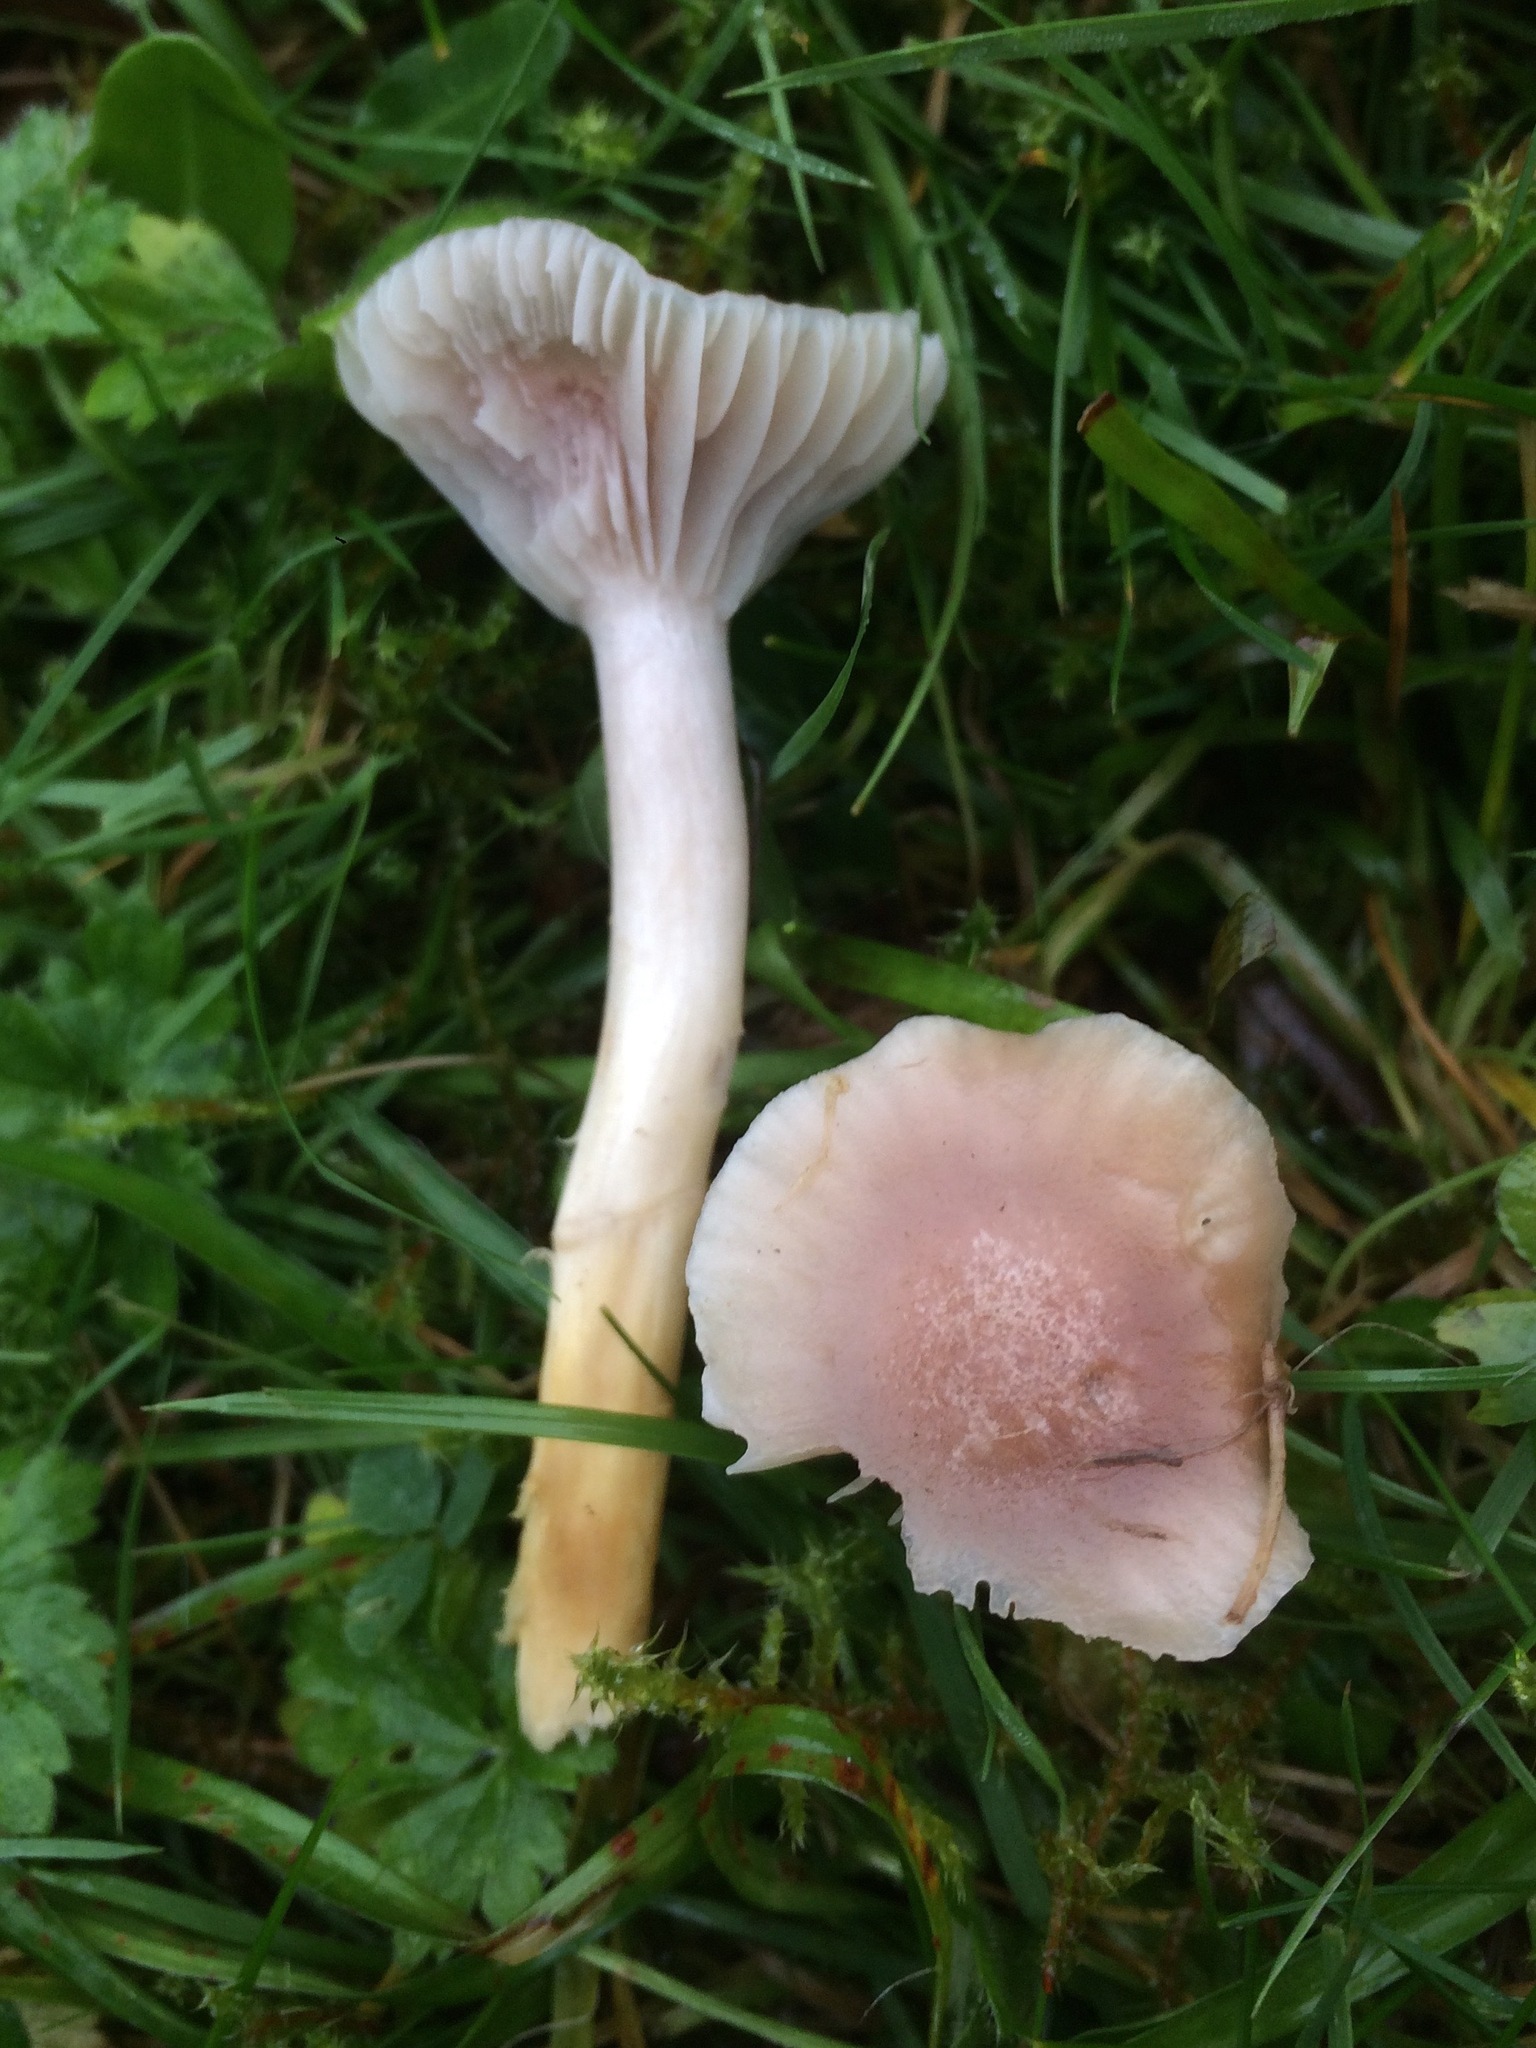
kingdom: Fungi
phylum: Basidiomycota
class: Agaricomycetes
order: Agaricales
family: Hygrophoraceae
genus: Cuphophyllus
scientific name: Cuphophyllus flavipes
